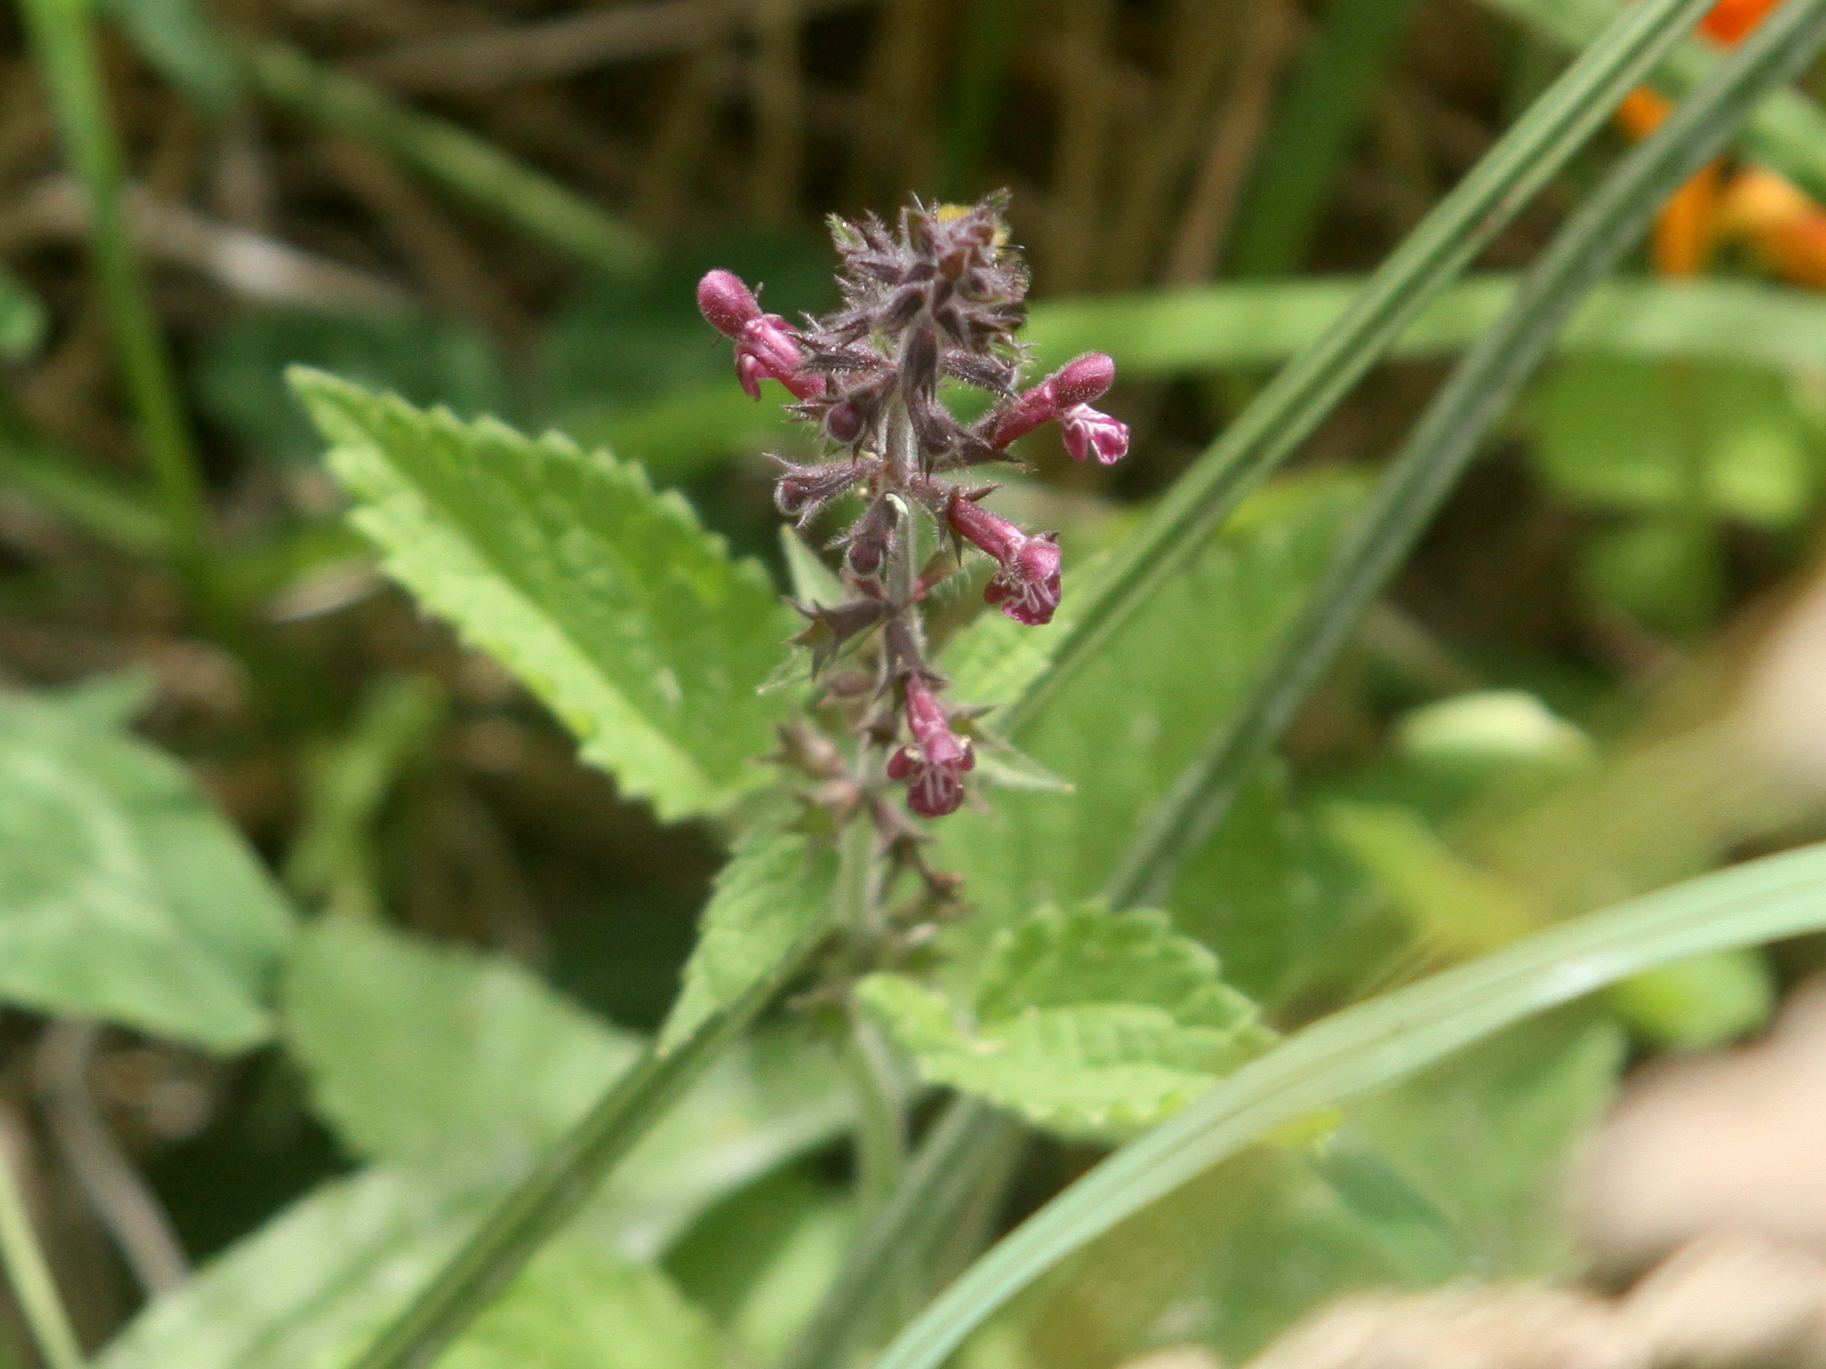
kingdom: Plantae
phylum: Tracheophyta
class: Magnoliopsida
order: Lamiales
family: Lamiaceae
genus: Stachys
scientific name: Stachys sylvatica
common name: Hedge woundwort
